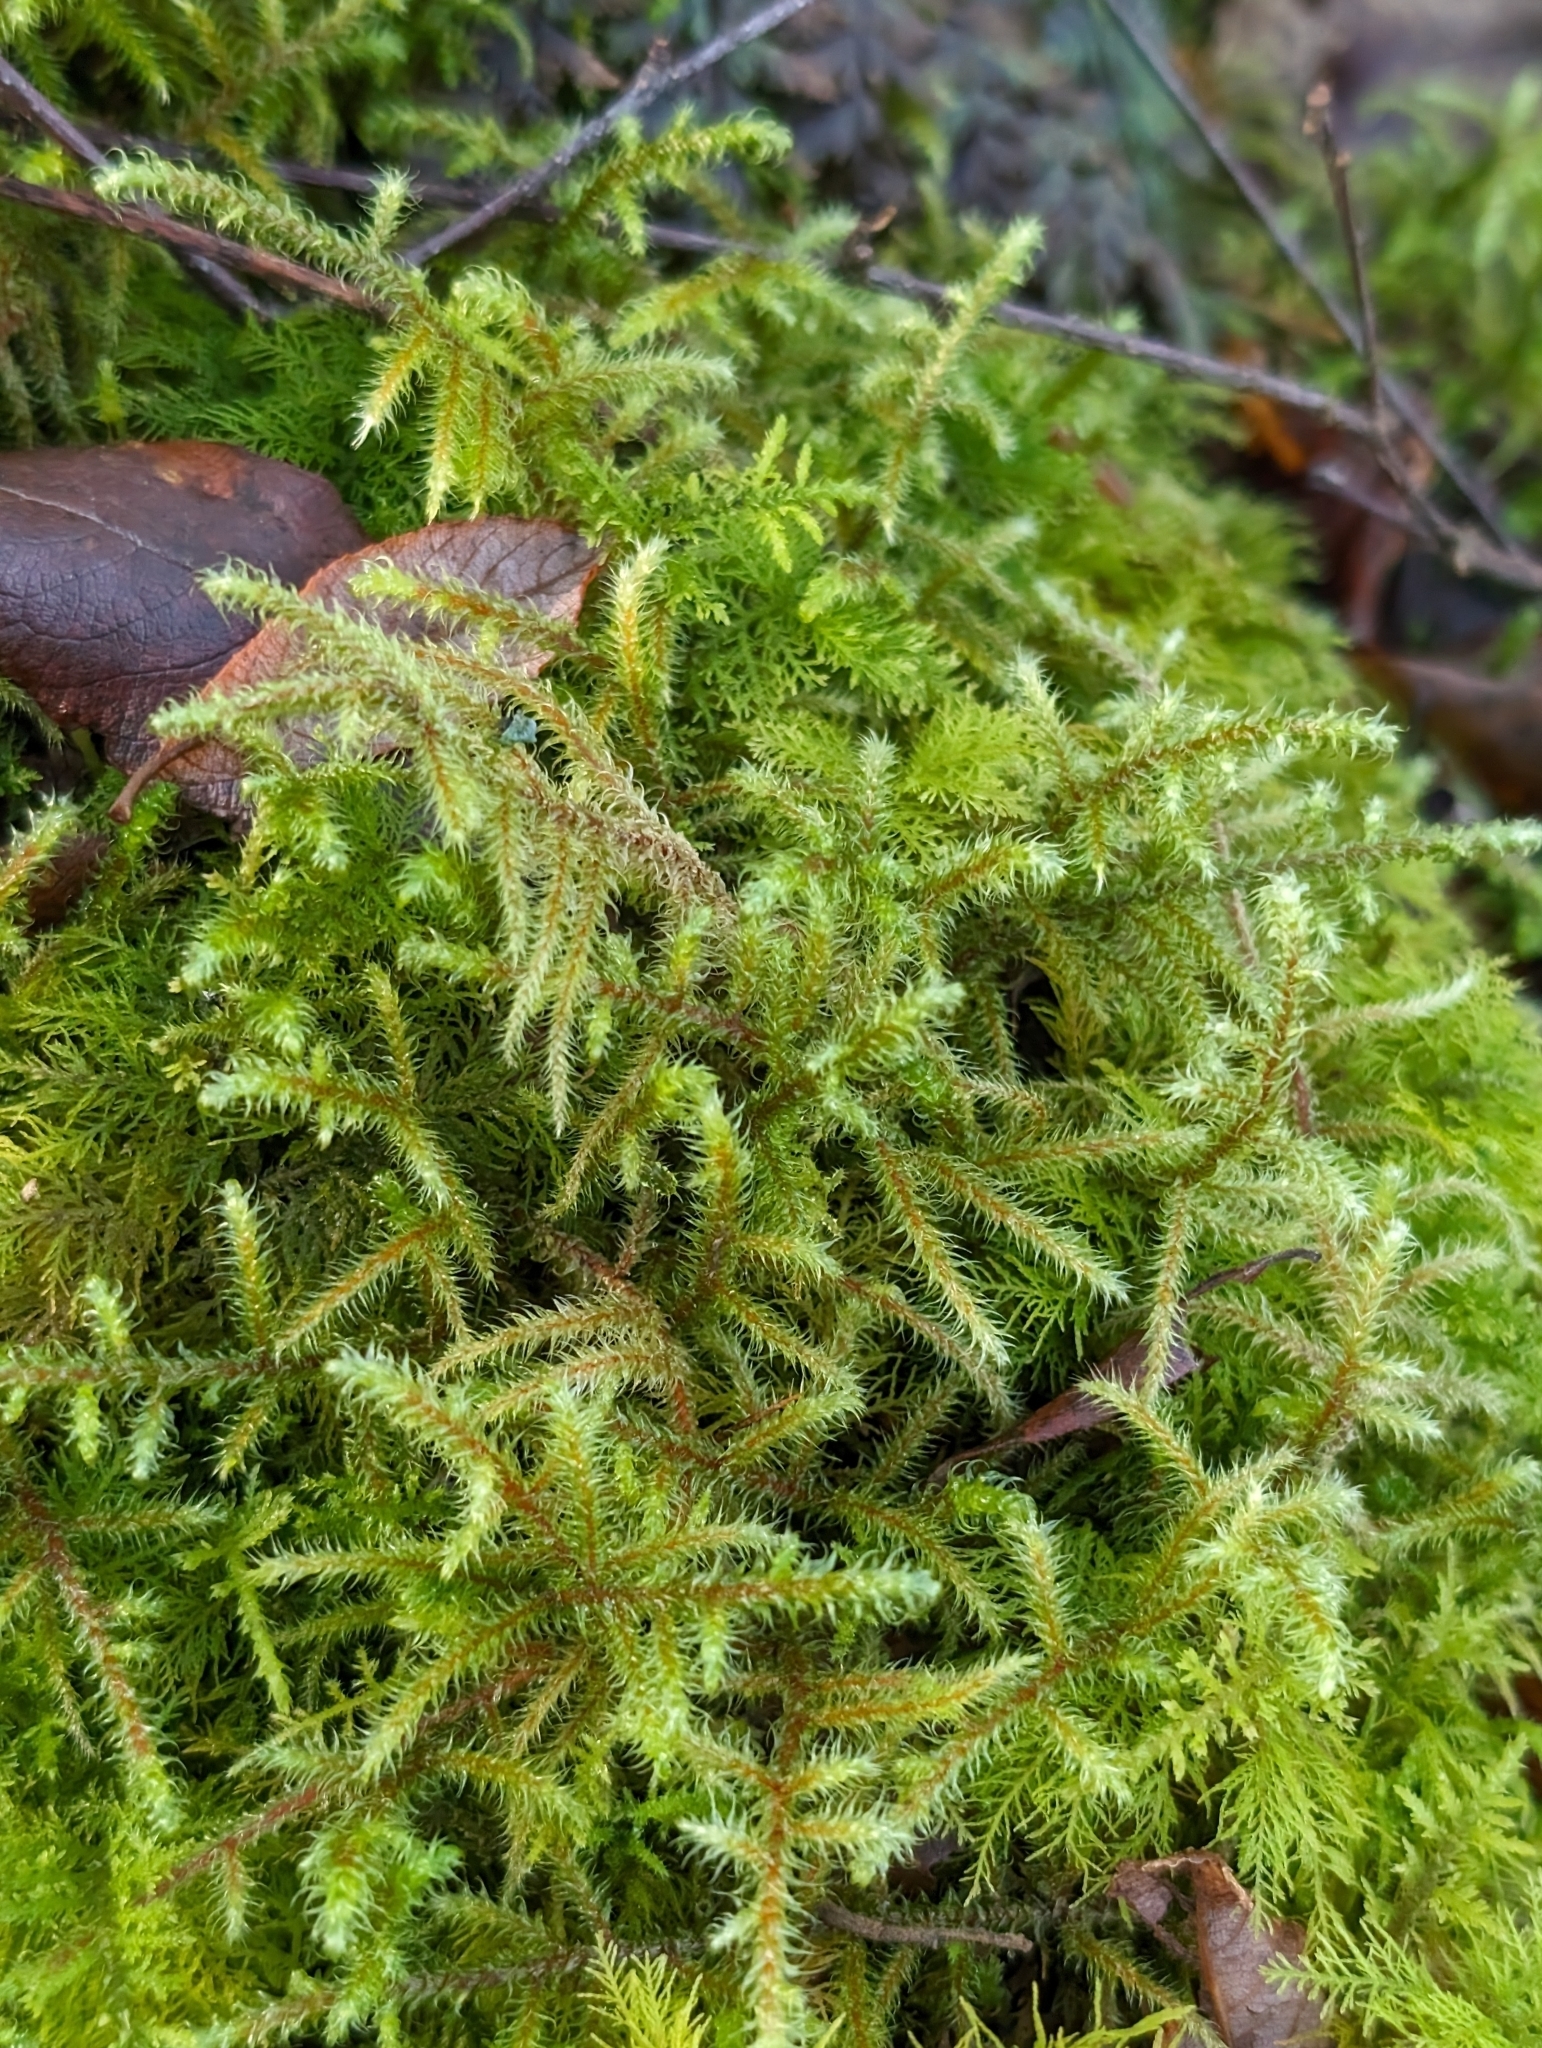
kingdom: Plantae
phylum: Bryophyta
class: Bryopsida
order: Hypnales
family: Hylocomiaceae
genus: Rhytidiadelphus
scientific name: Rhytidiadelphus loreus
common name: Lanky moss
